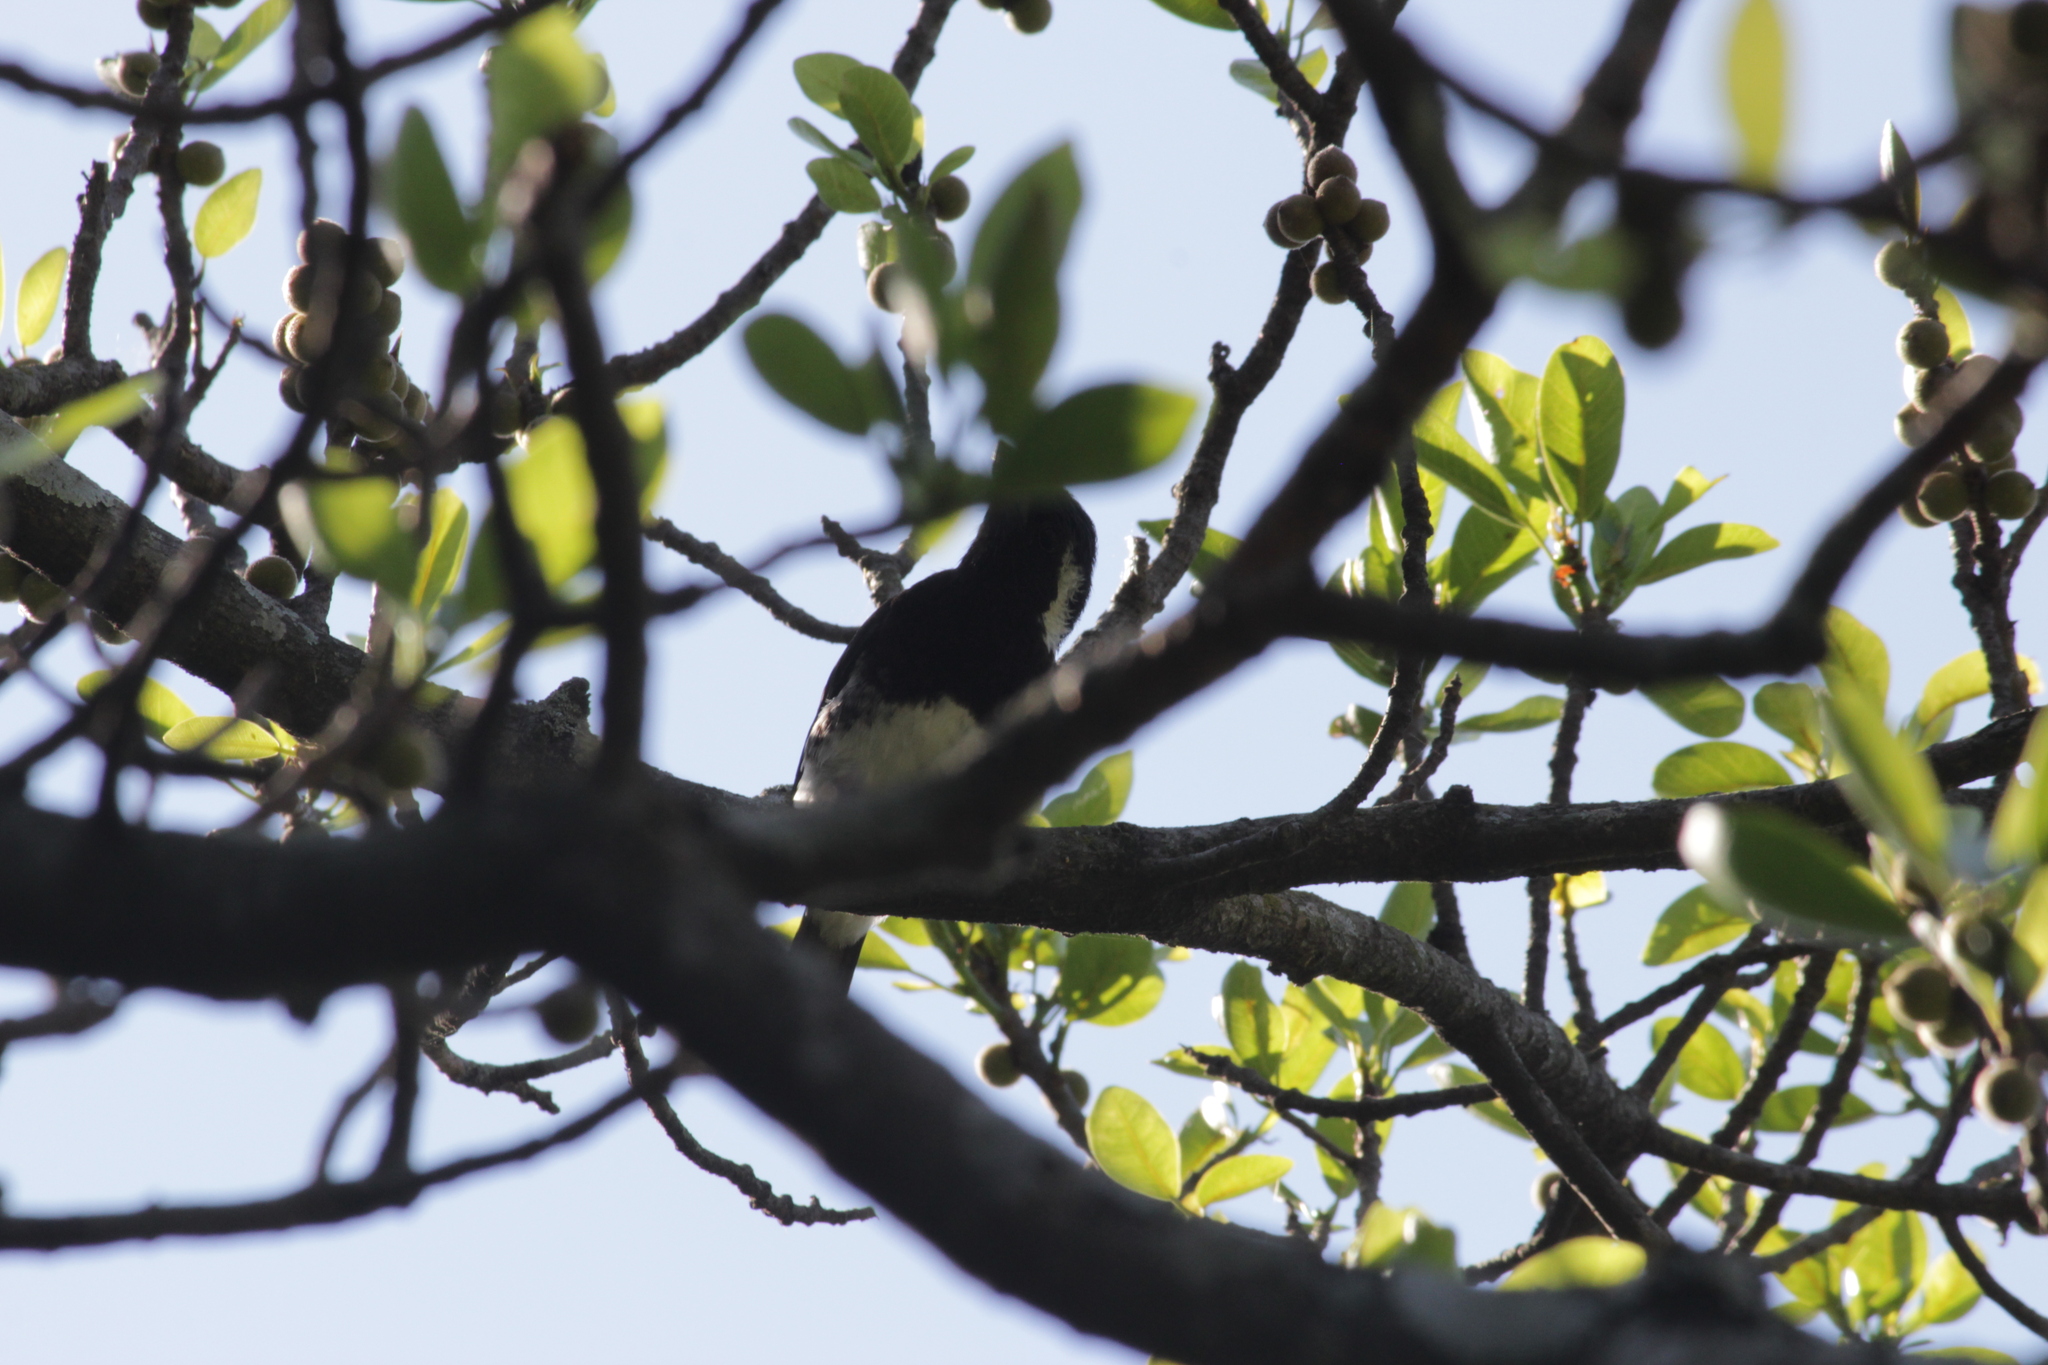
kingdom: Animalia
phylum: Chordata
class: Aves
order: Piciformes
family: Lybiidae
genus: Stactolaema
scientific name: Stactolaema leucotis
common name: White-eared barbet
